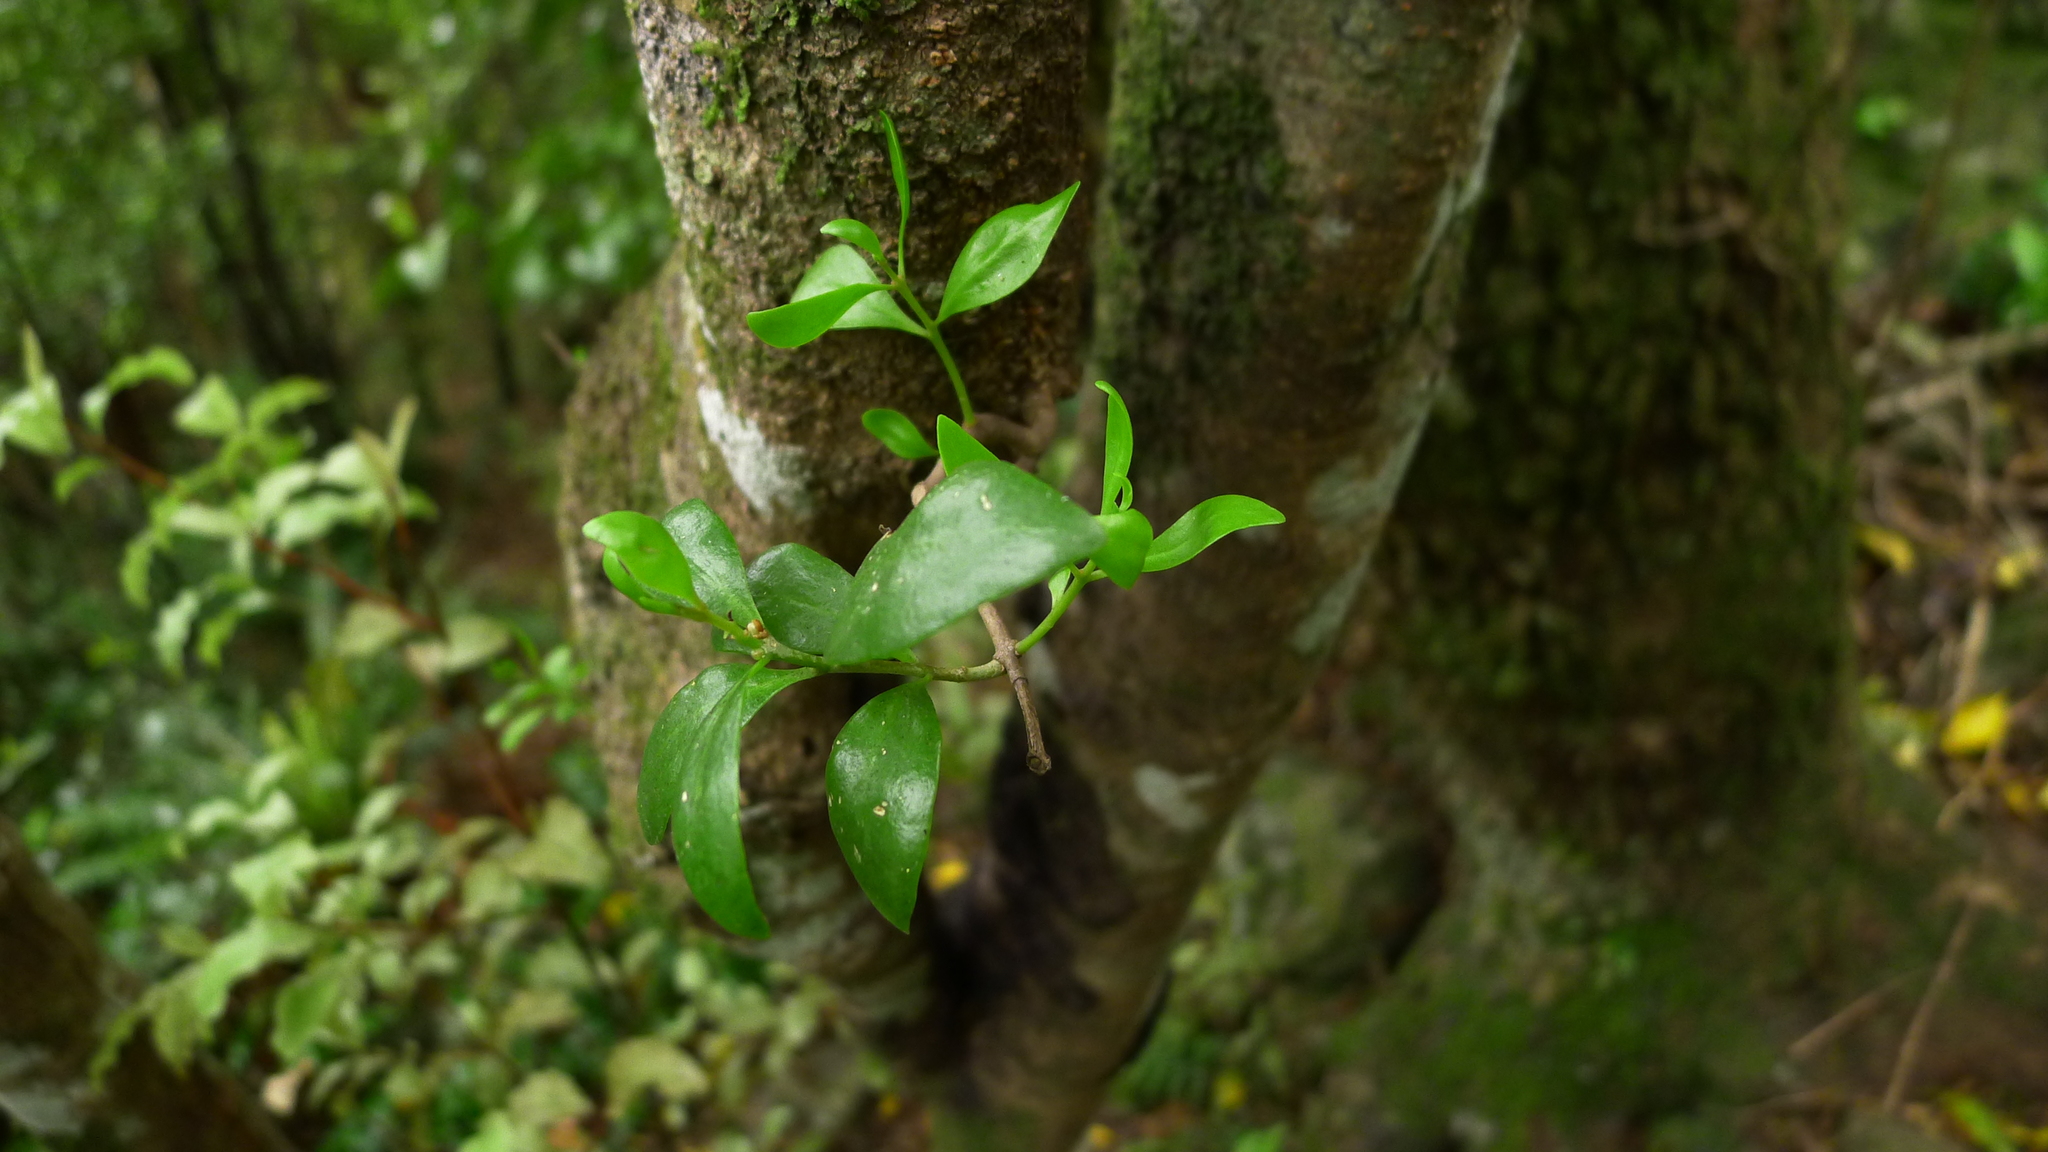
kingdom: Plantae
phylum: Tracheophyta
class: Magnoliopsida
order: Santalales
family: Loranthaceae
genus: Tupeia
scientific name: Tupeia antarctica
